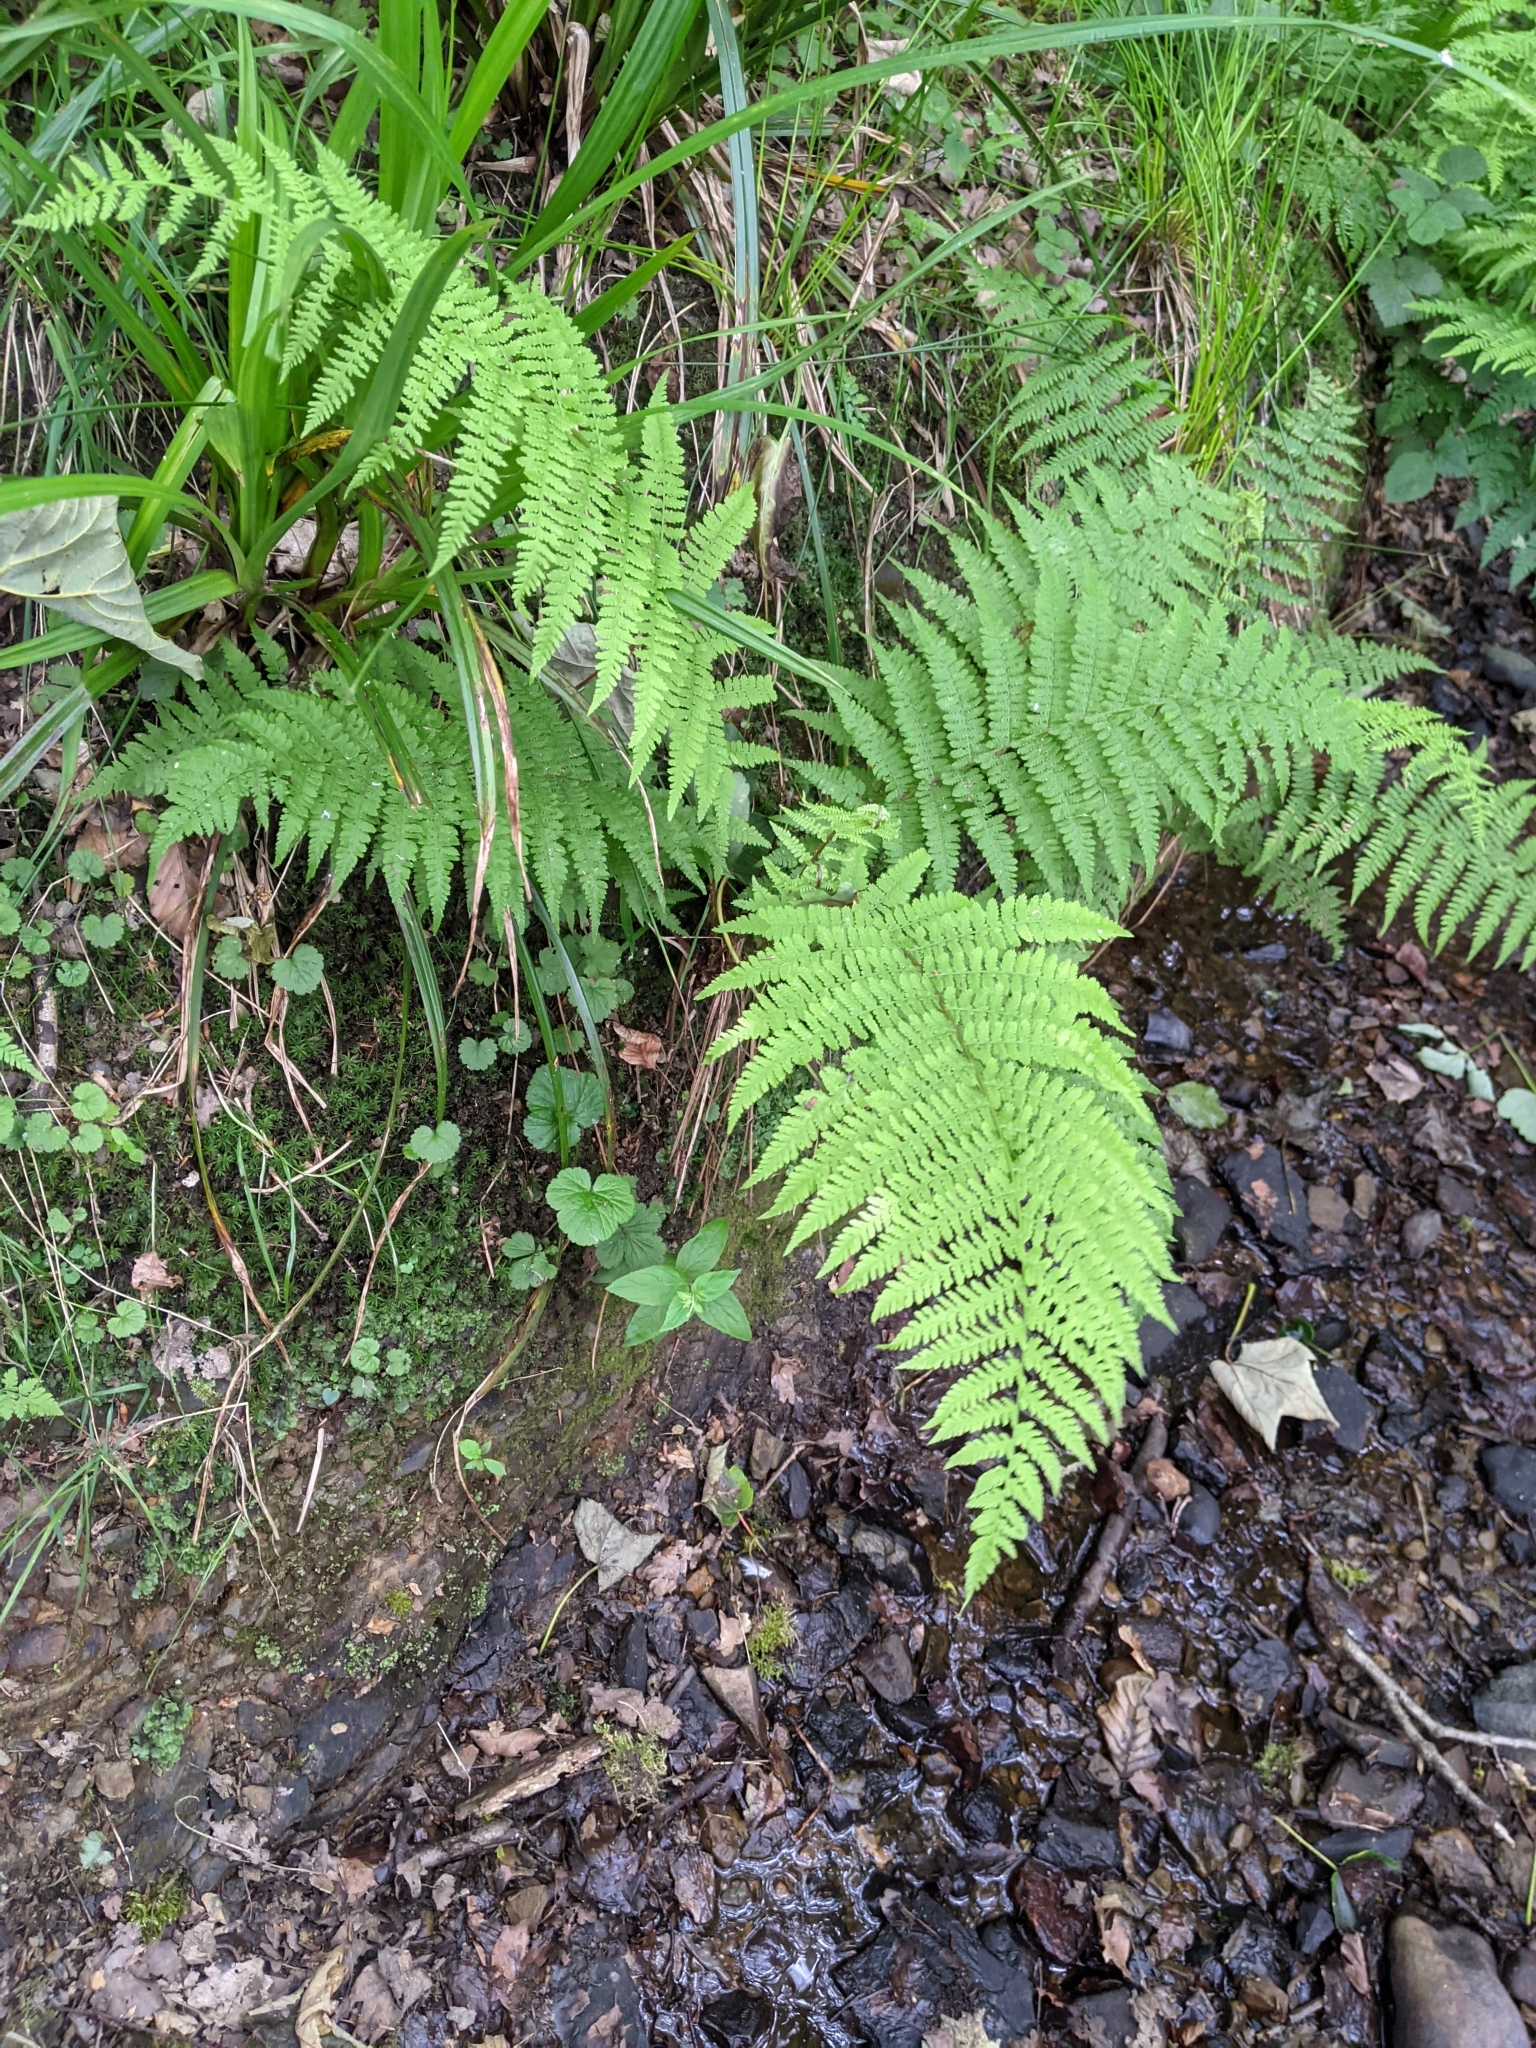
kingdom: Plantae
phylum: Tracheophyta
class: Polypodiopsida
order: Polypodiales
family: Athyriaceae
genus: Athyrium
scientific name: Athyrium filix-femina
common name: Lady fern
